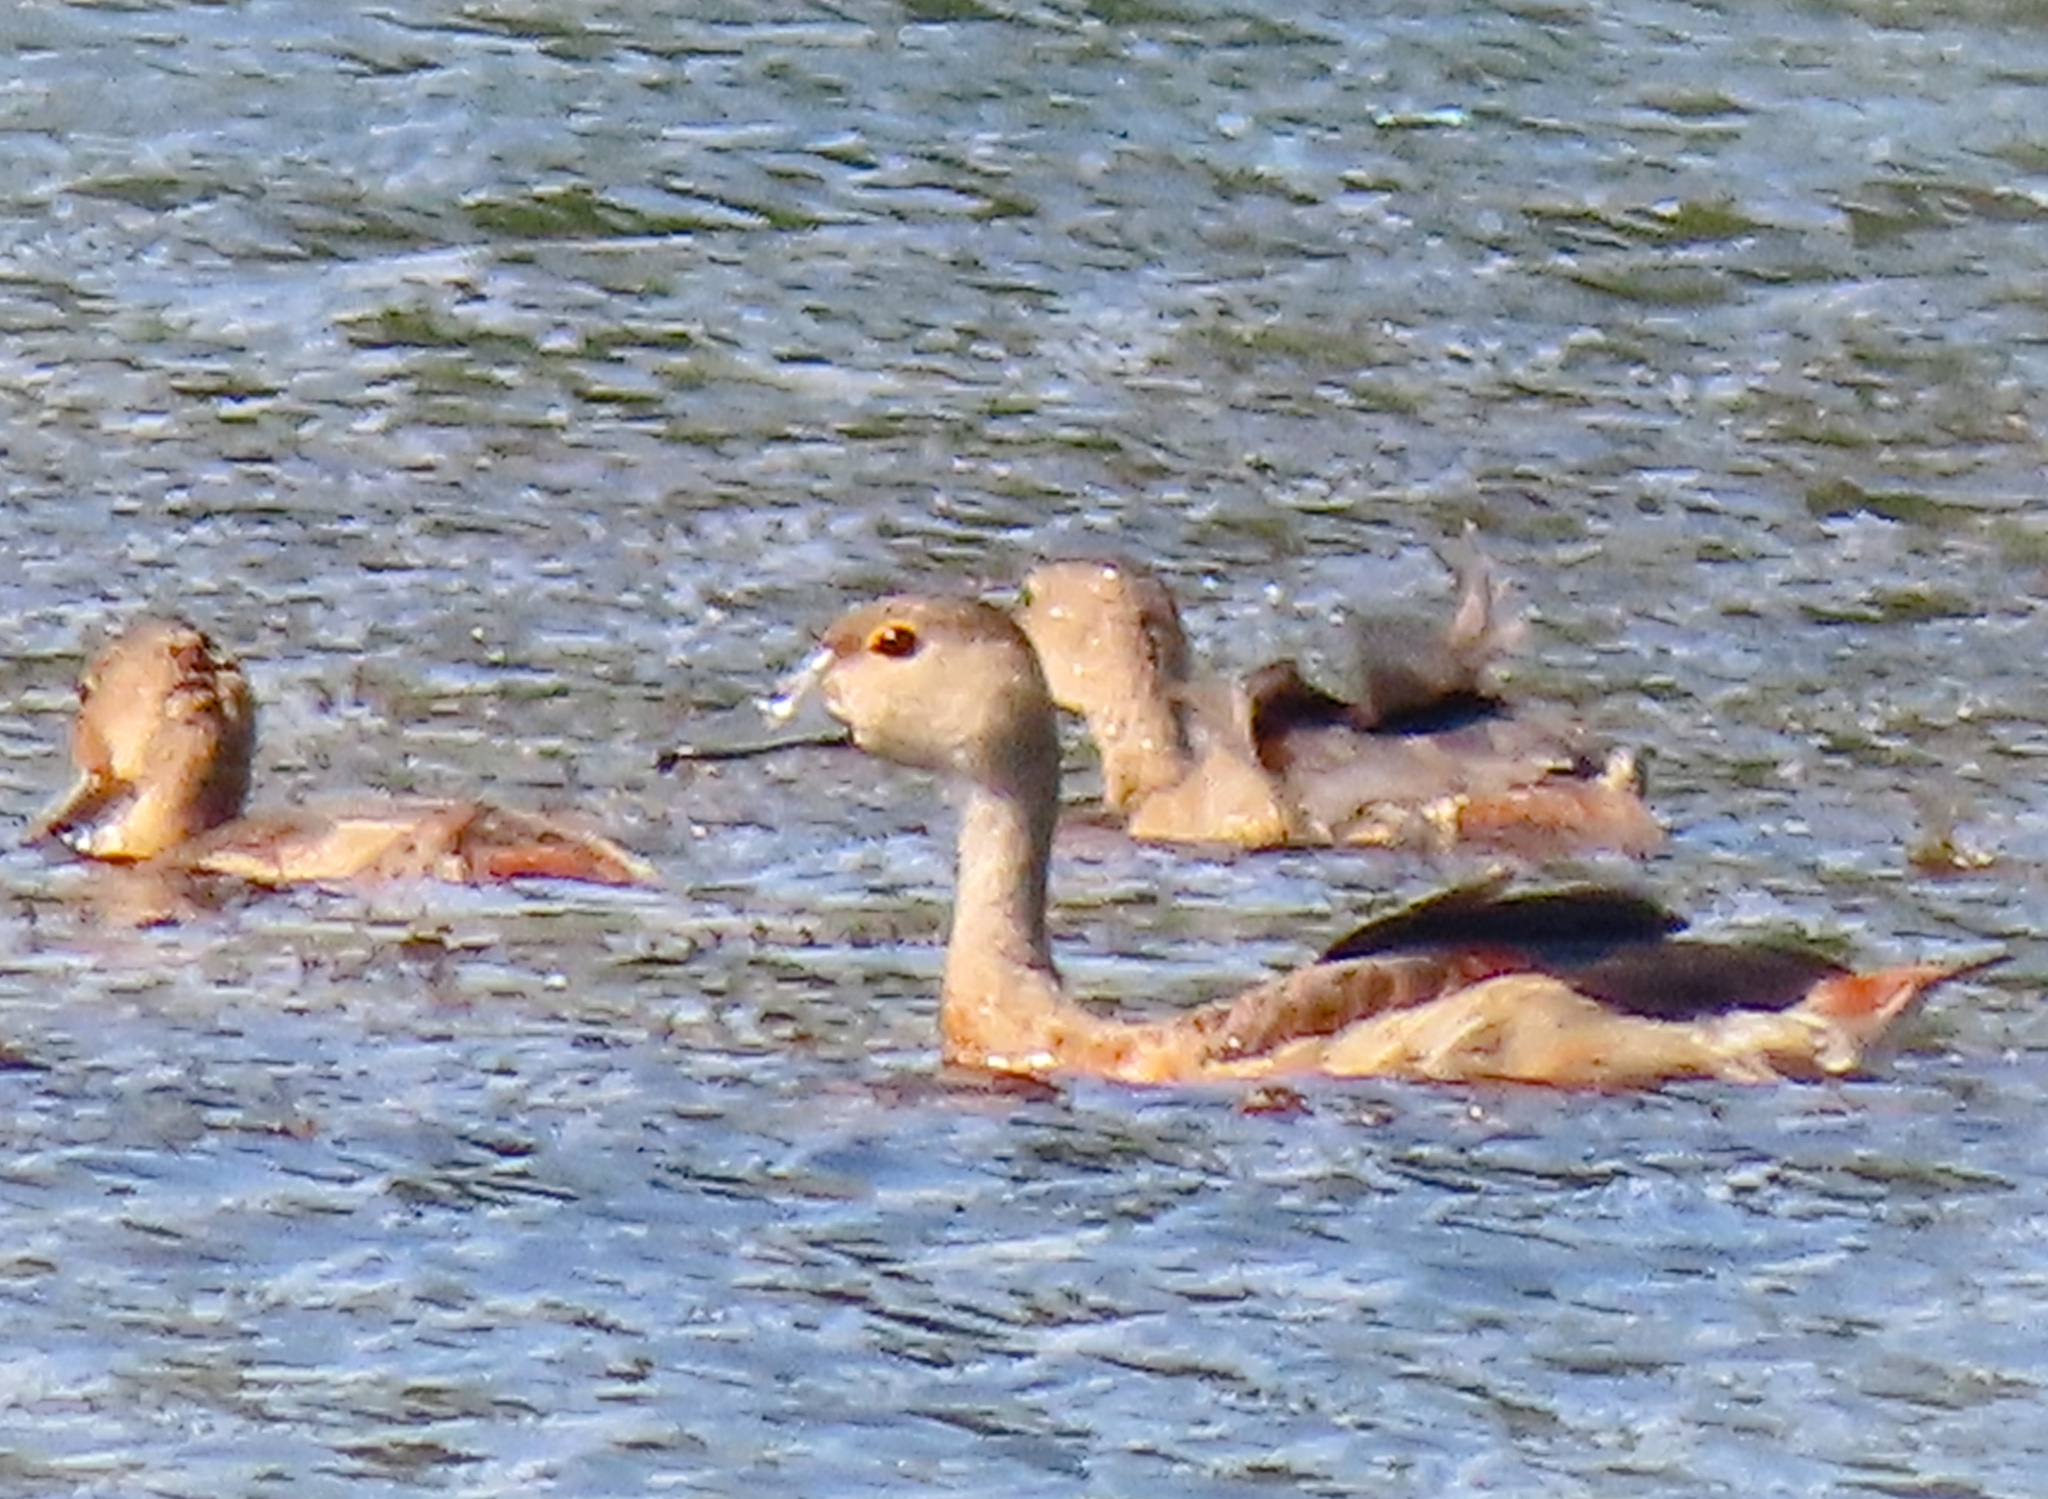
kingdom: Animalia
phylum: Chordata
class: Aves
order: Anseriformes
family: Anatidae
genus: Dendrocygna
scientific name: Dendrocygna javanica
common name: Lesser whistling-duck
